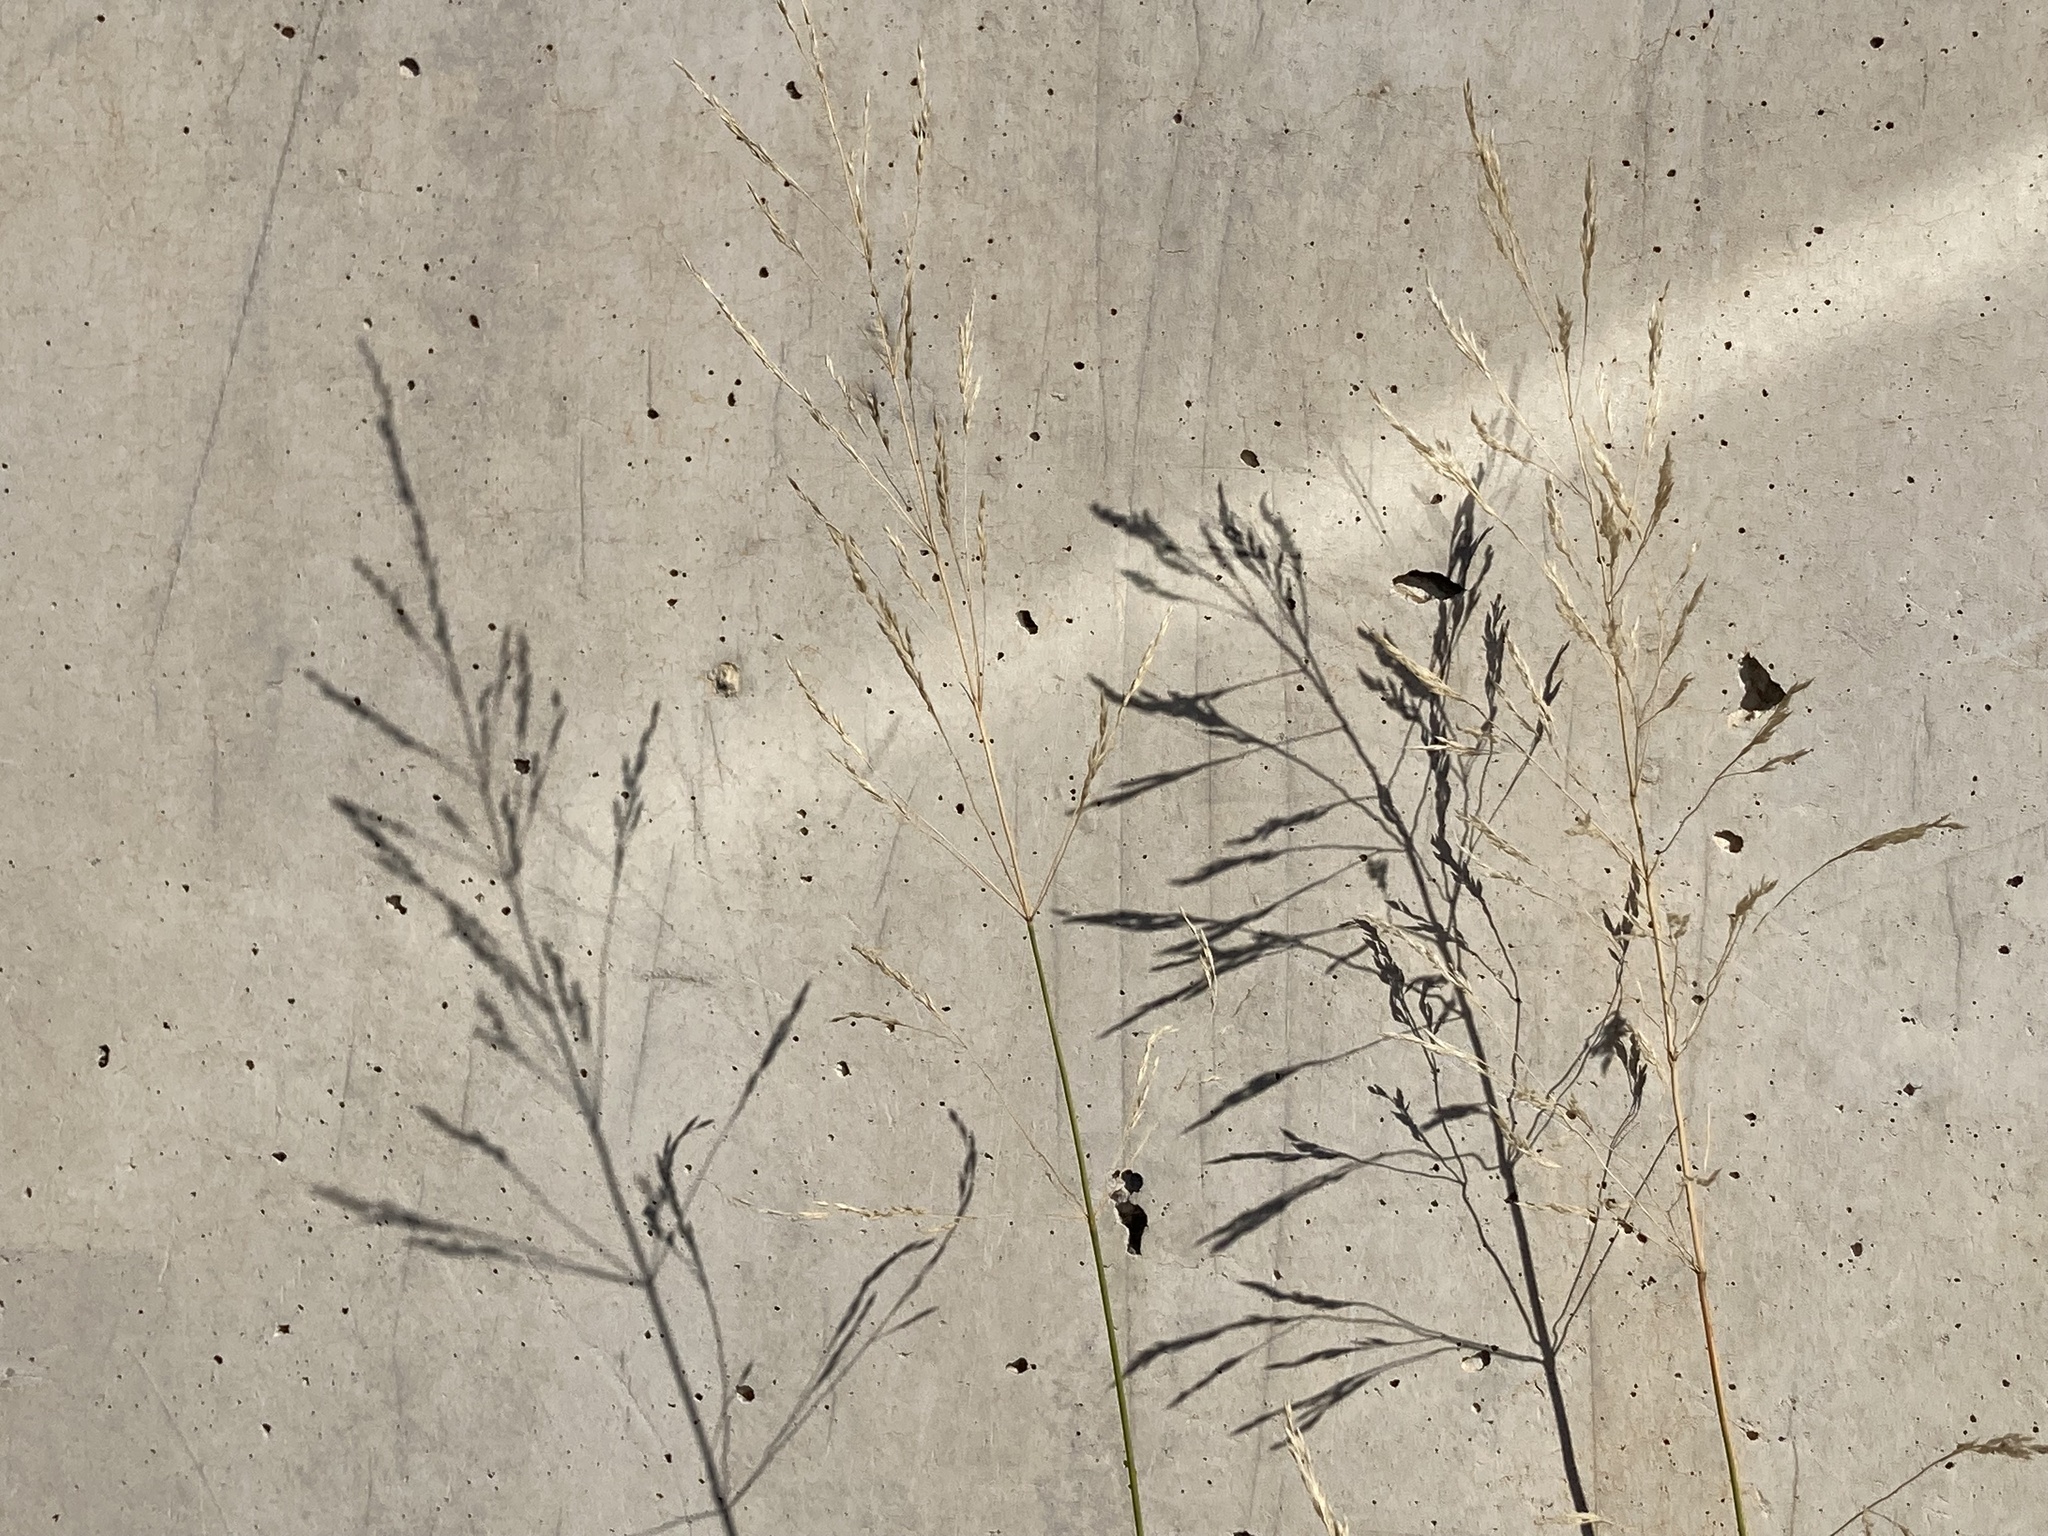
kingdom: Plantae
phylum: Tracheophyta
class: Liliopsida
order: Poales
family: Poaceae
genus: Oloptum
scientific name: Oloptum miliaceum
